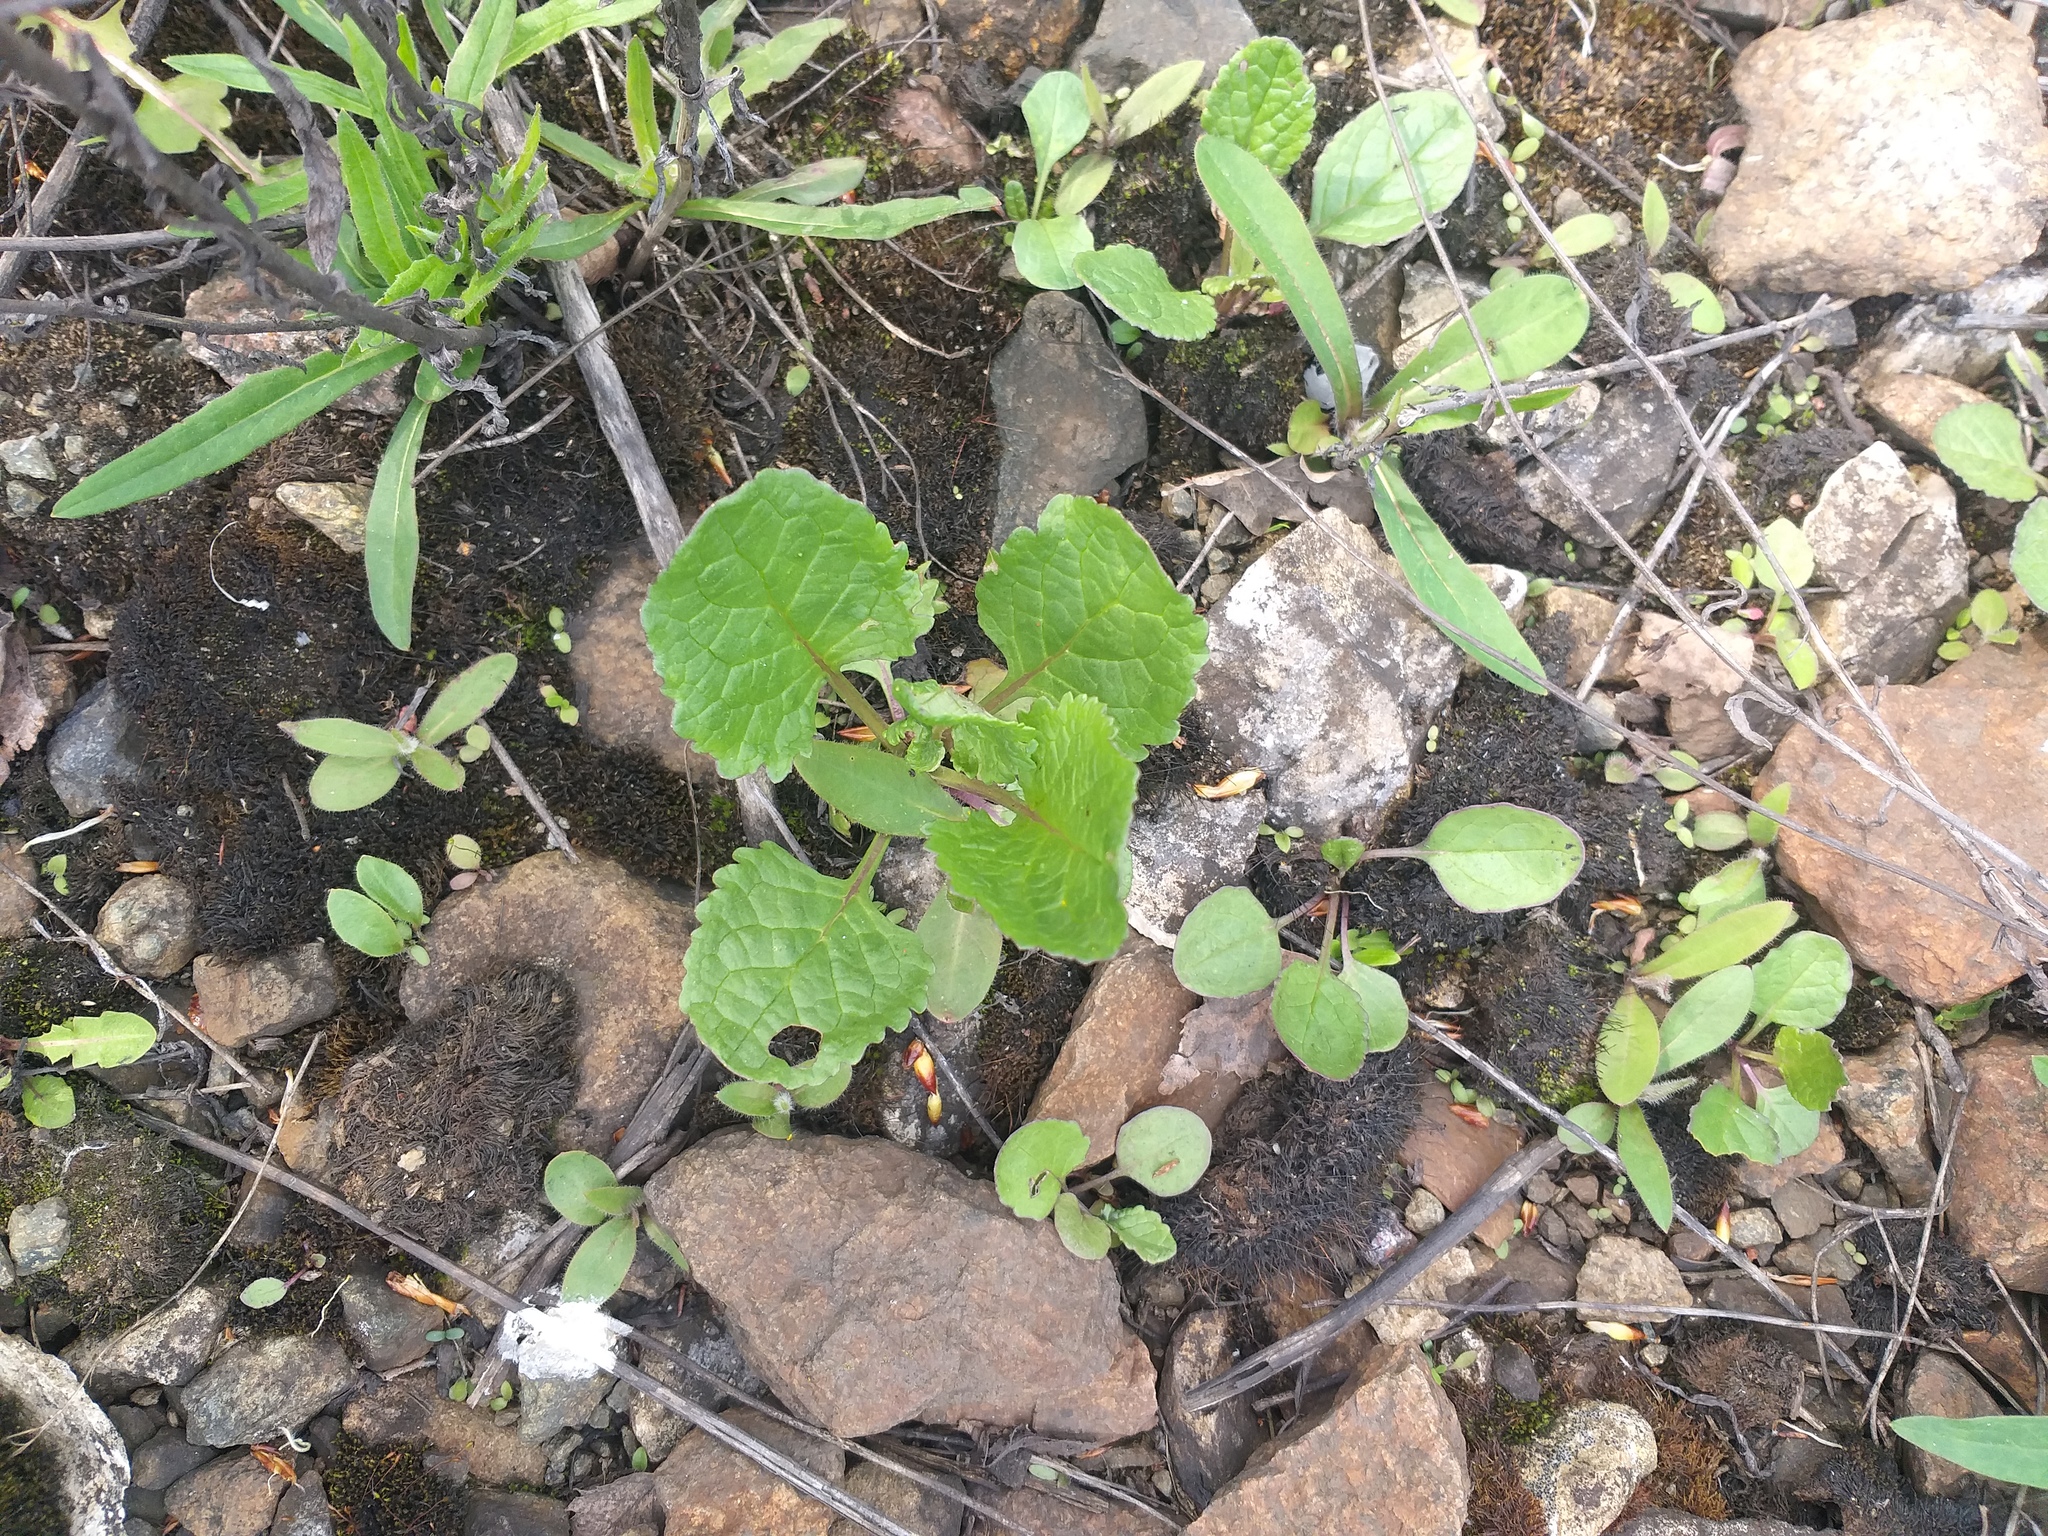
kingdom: Plantae
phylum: Tracheophyta
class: Magnoliopsida
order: Asterales
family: Asteraceae
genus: Jacobaea
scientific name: Jacobaea vulgaris
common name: Stinking willie
